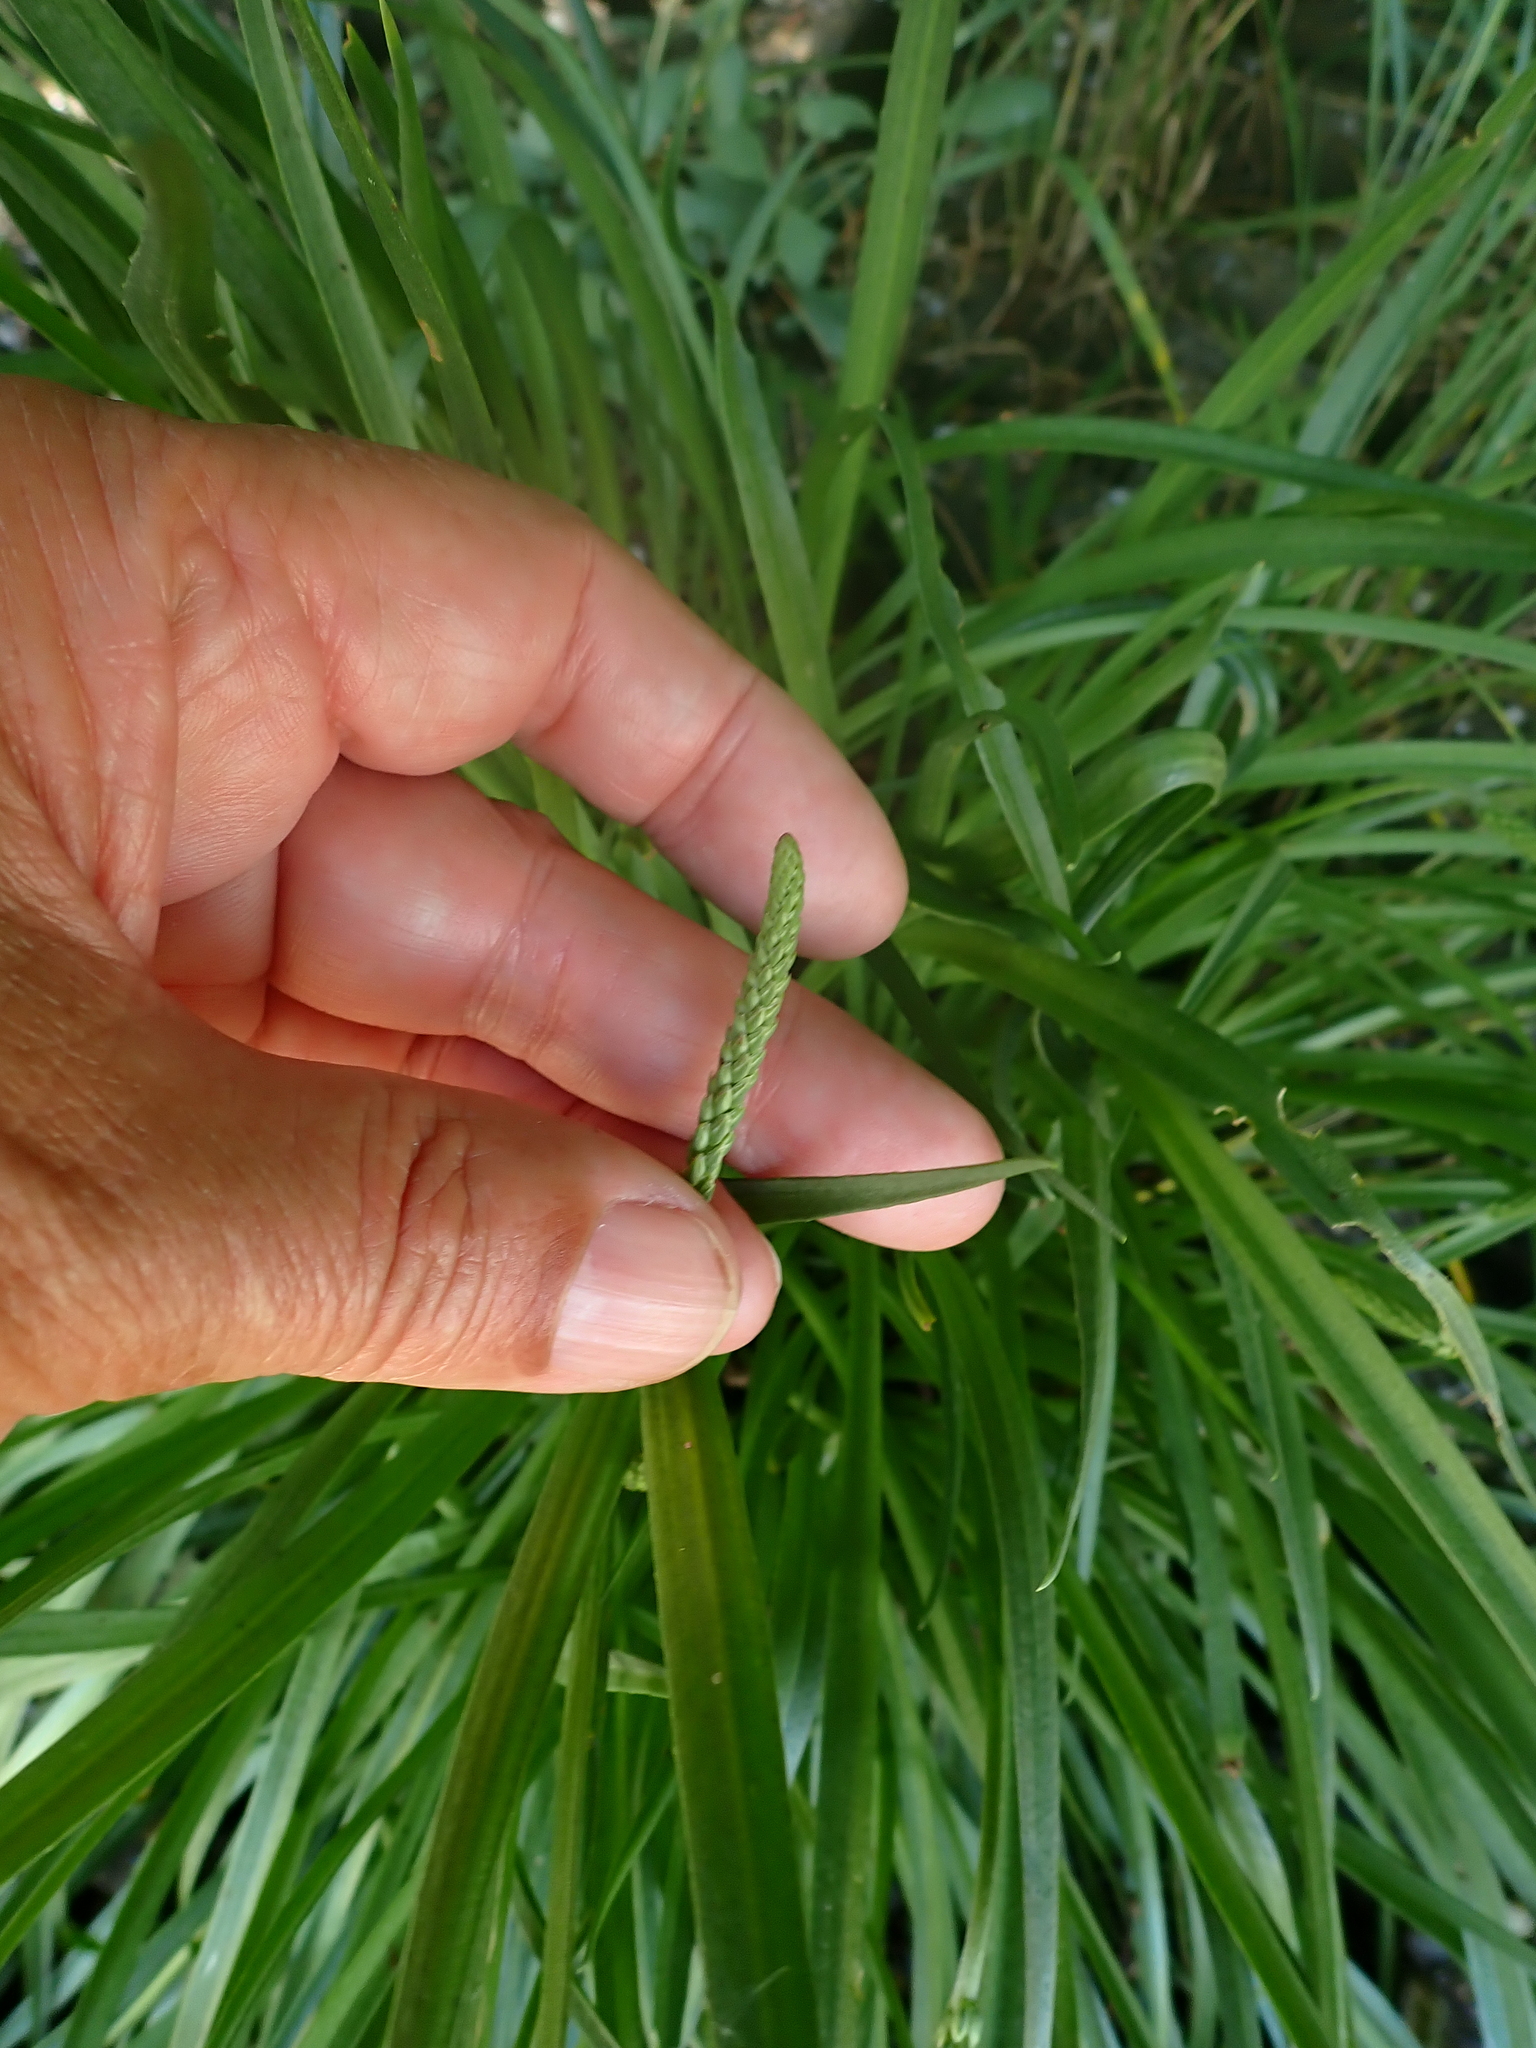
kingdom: Plantae
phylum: Tracheophyta
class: Magnoliopsida
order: Lamiales
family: Plantaginaceae
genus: Plantago
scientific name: Plantago maritima
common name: Sea plantain
